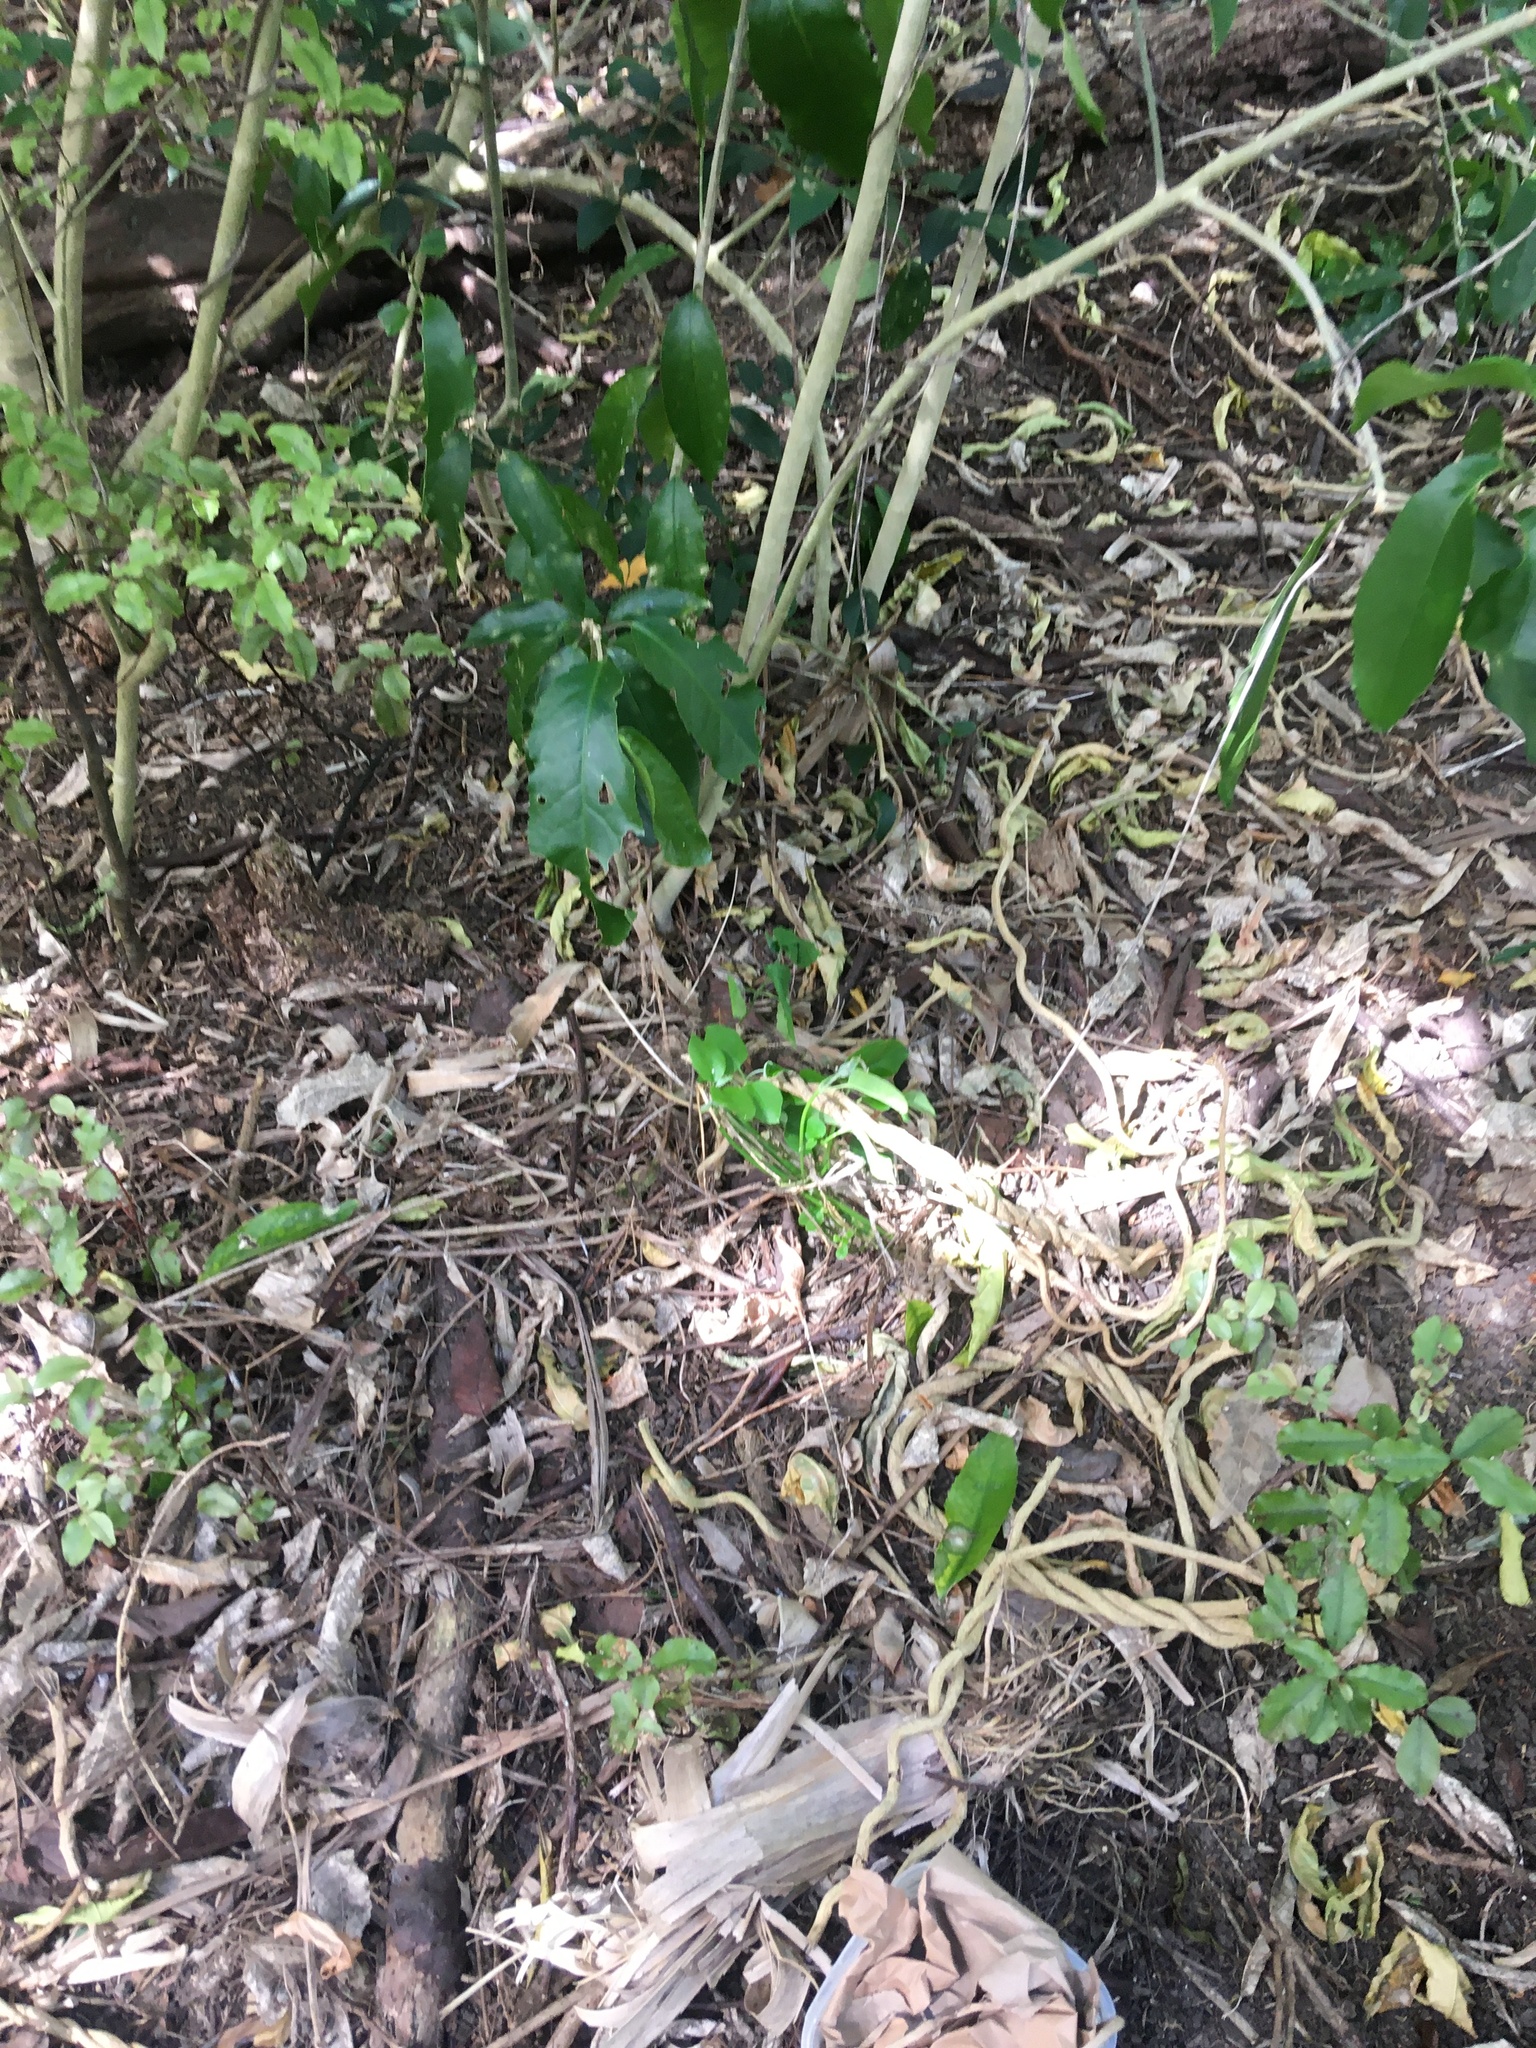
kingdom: Plantae
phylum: Tracheophyta
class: Magnoliopsida
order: Gentianales
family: Apocynaceae
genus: Araujia
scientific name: Araujia sericifera
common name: White bladderflower
